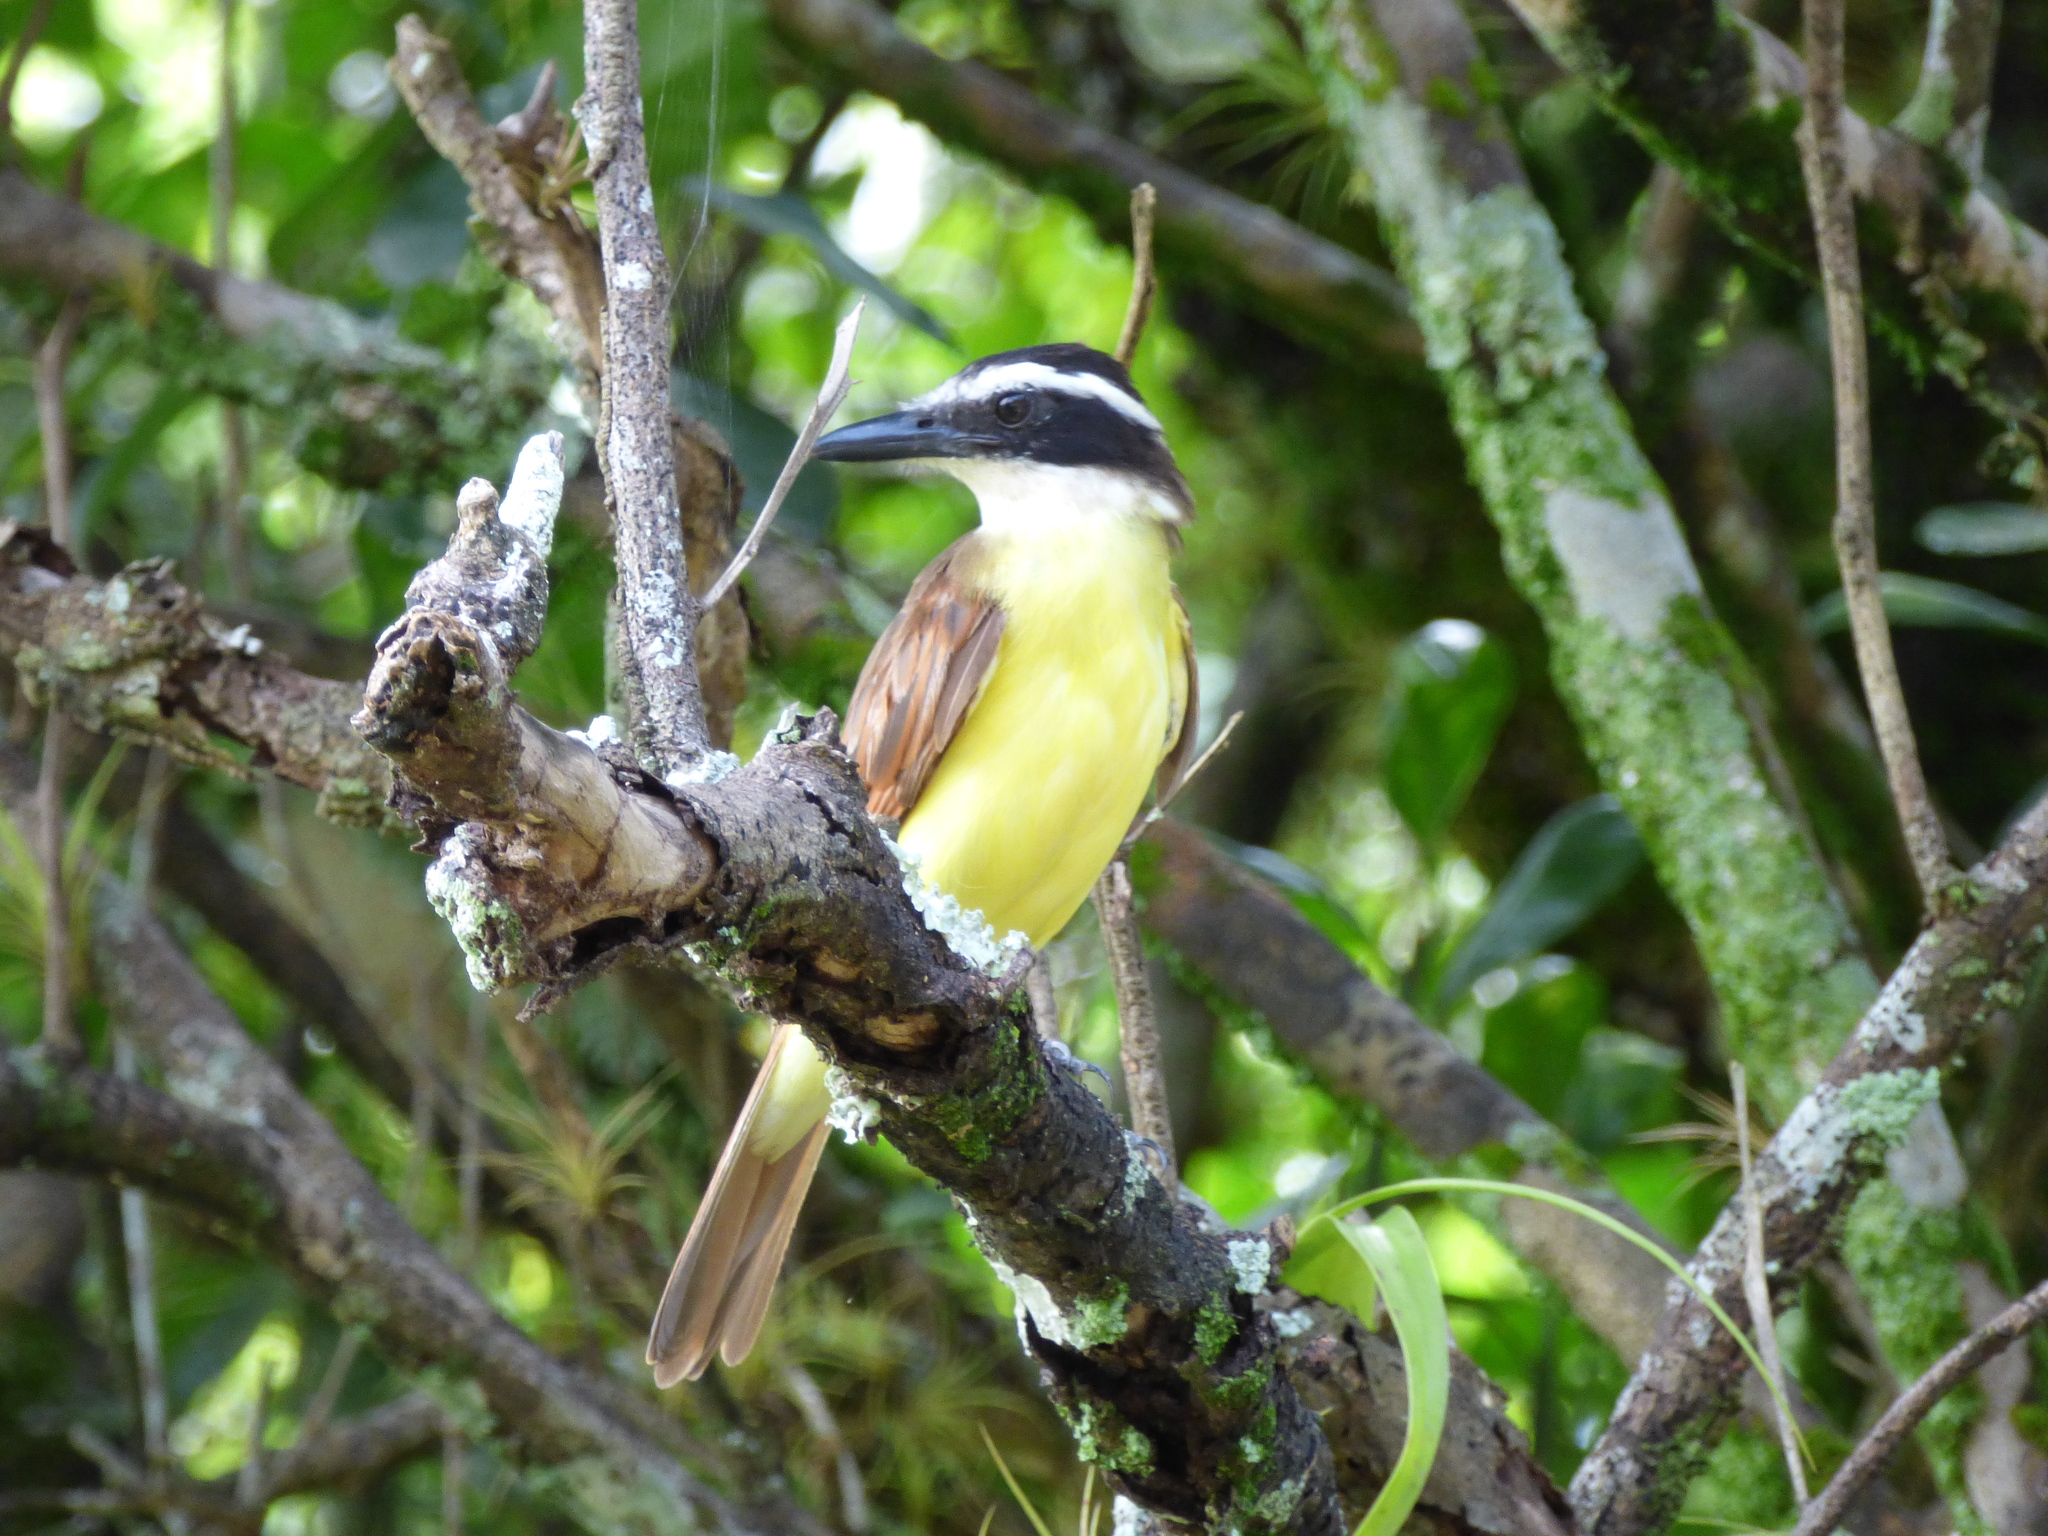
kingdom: Animalia
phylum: Chordata
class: Aves
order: Passeriformes
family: Tyrannidae
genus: Pitangus
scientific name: Pitangus sulphuratus
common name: Great kiskadee
